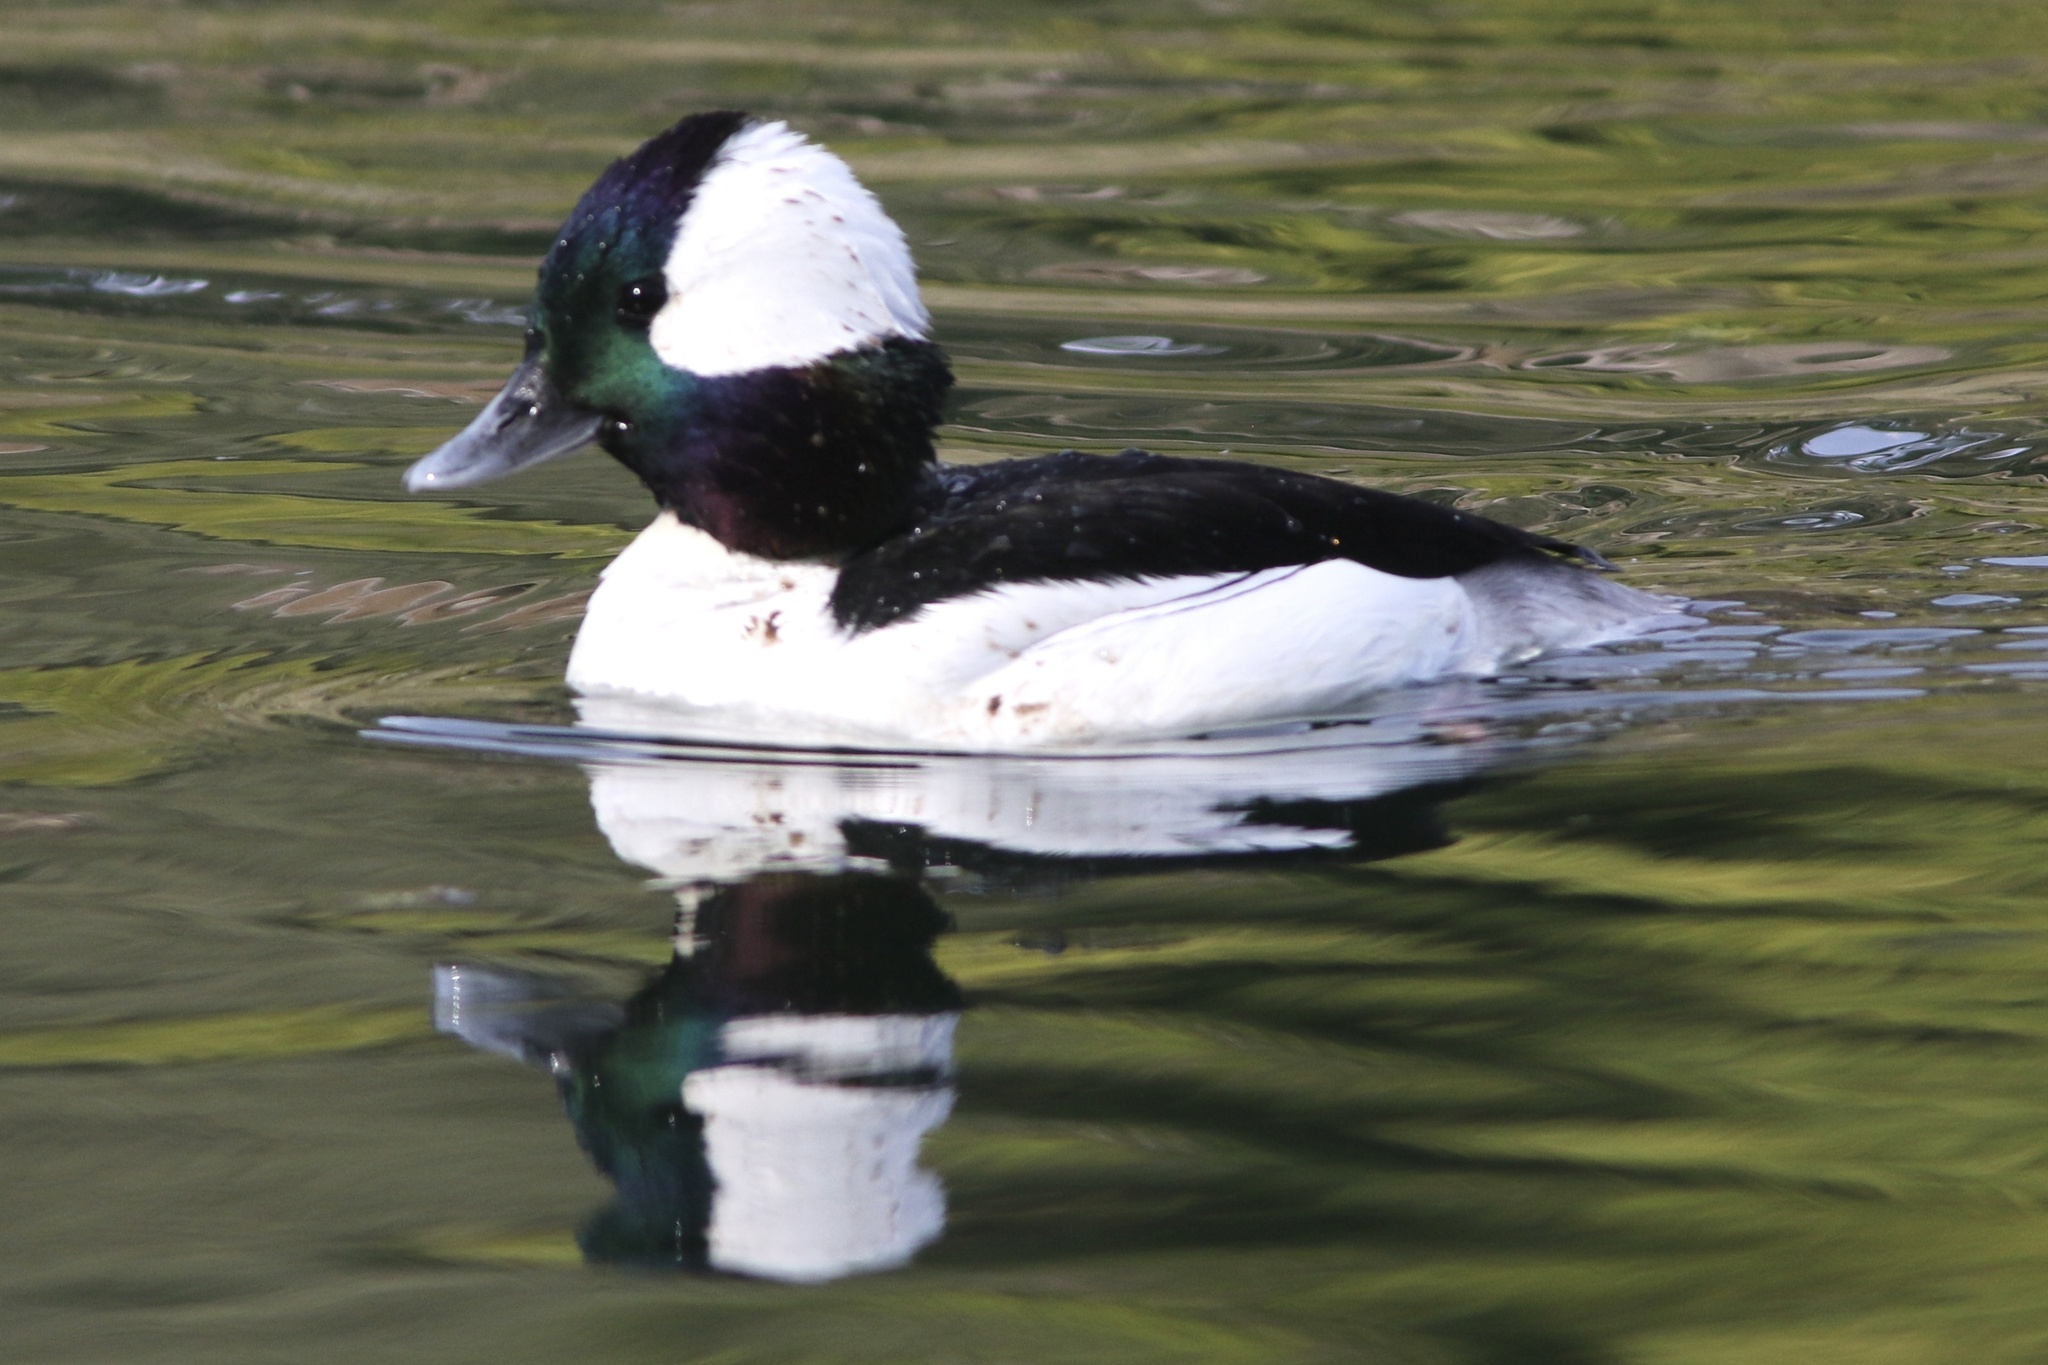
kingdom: Animalia
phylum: Chordata
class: Aves
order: Anseriformes
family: Anatidae
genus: Bucephala
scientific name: Bucephala albeola
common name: Bufflehead
